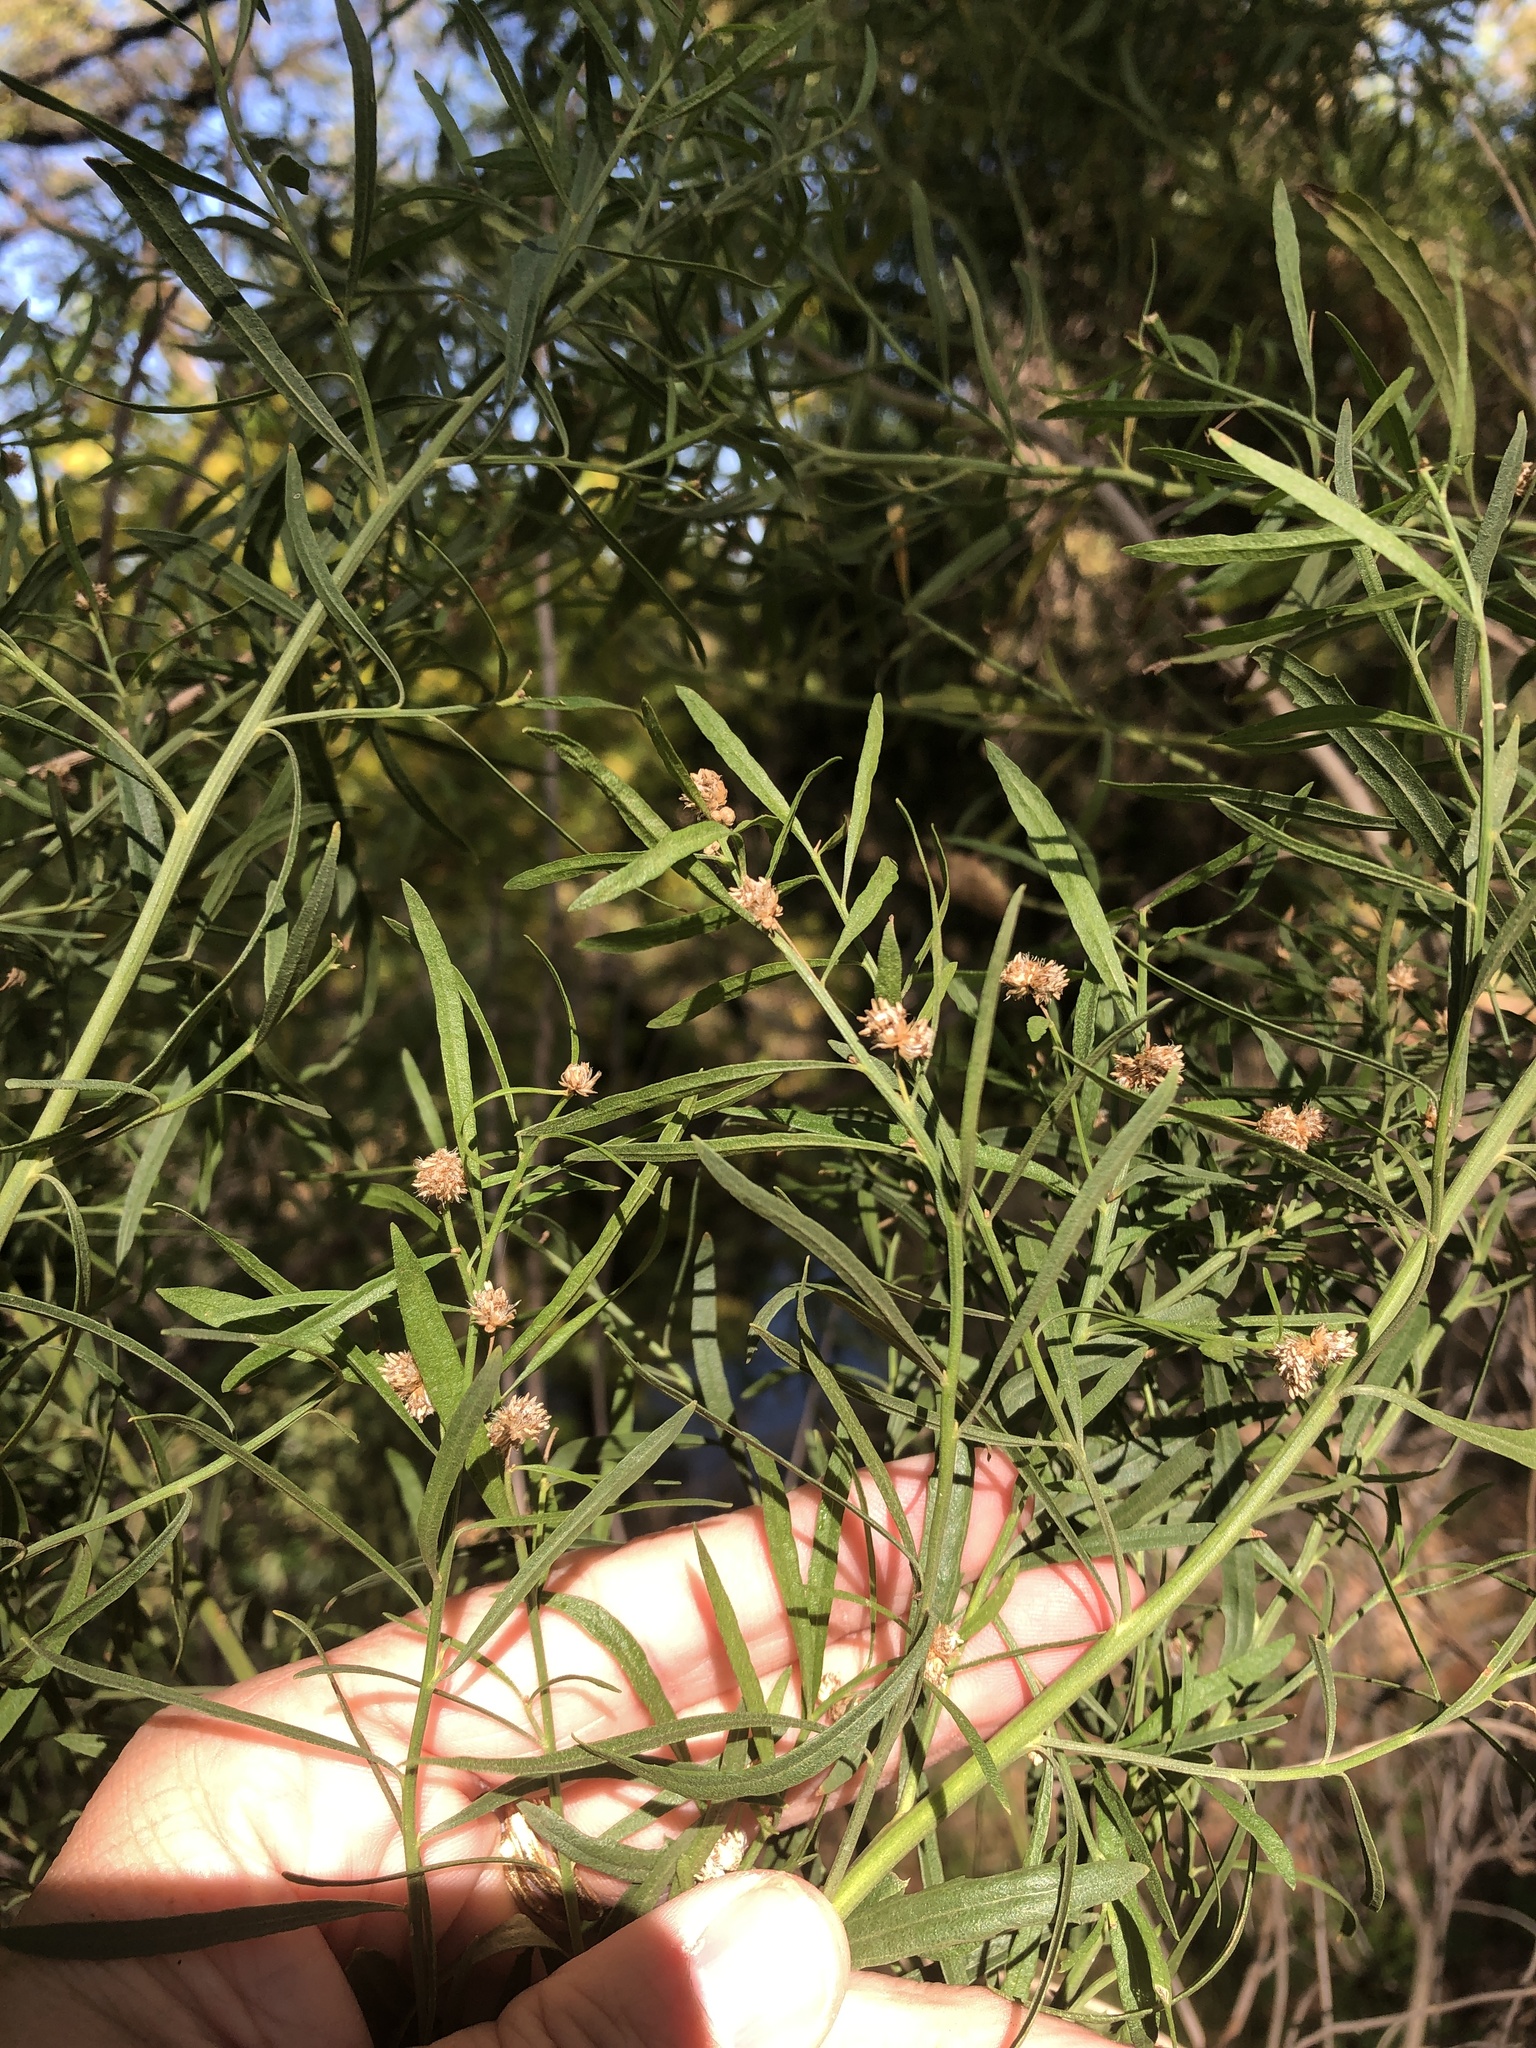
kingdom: Plantae
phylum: Tracheophyta
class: Magnoliopsida
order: Asterales
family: Asteraceae
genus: Baccharis
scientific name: Baccharis neglecta
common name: Roosevelt-weed
